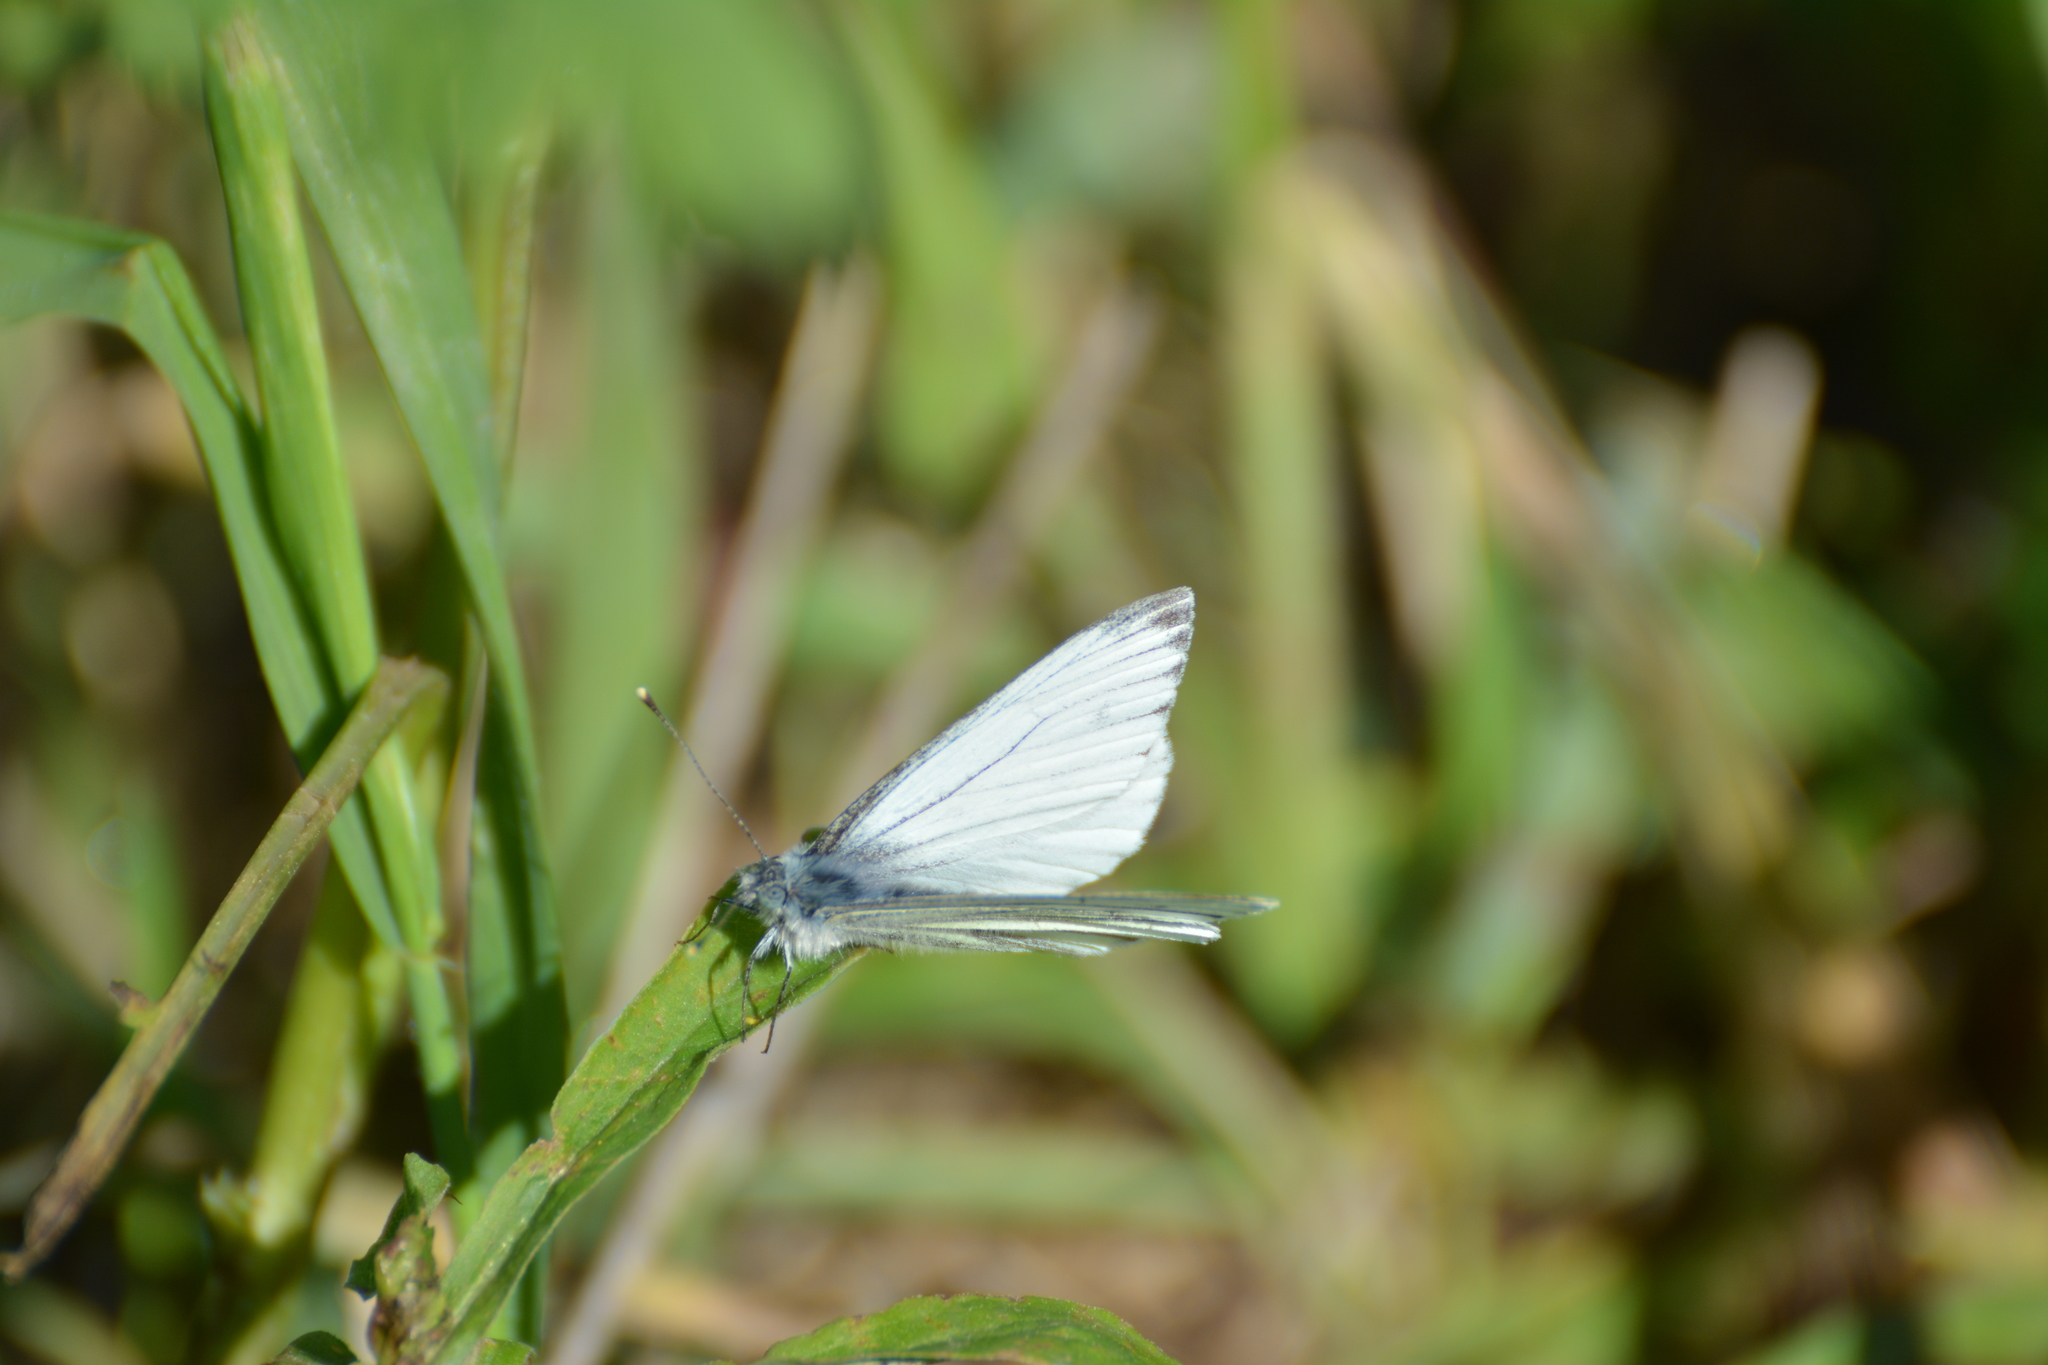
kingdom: Animalia
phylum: Arthropoda
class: Insecta
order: Lepidoptera
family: Pieridae
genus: Pieris
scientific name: Pieris napi
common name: Green-veined white
